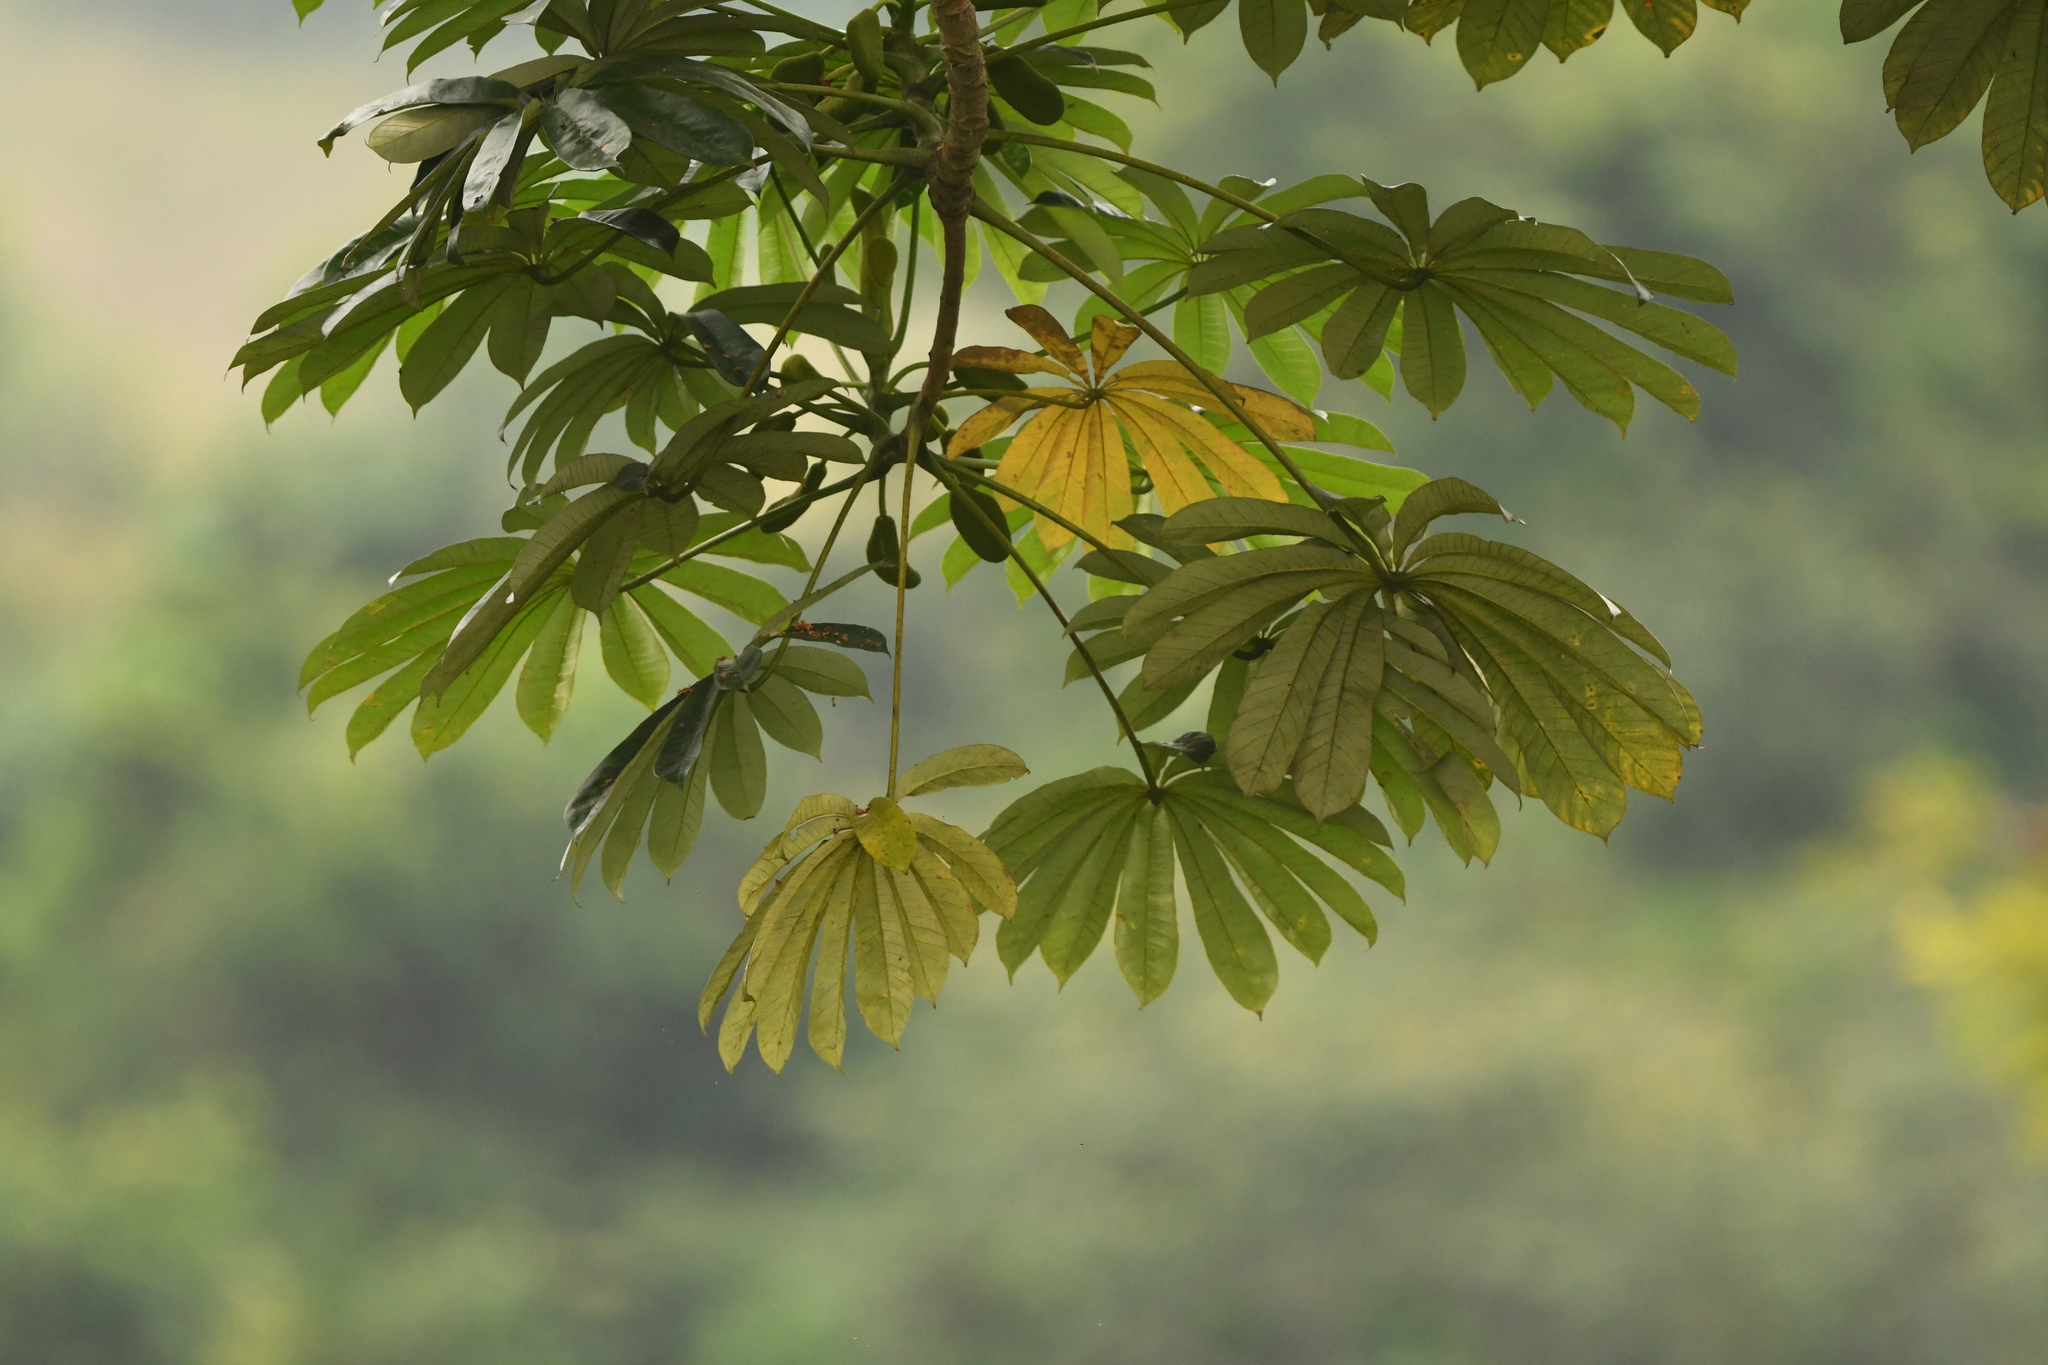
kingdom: Plantae
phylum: Tracheophyta
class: Magnoliopsida
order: Rosales
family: Urticaceae
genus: Musanga
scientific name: Musanga cecropioides
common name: African corkwood
